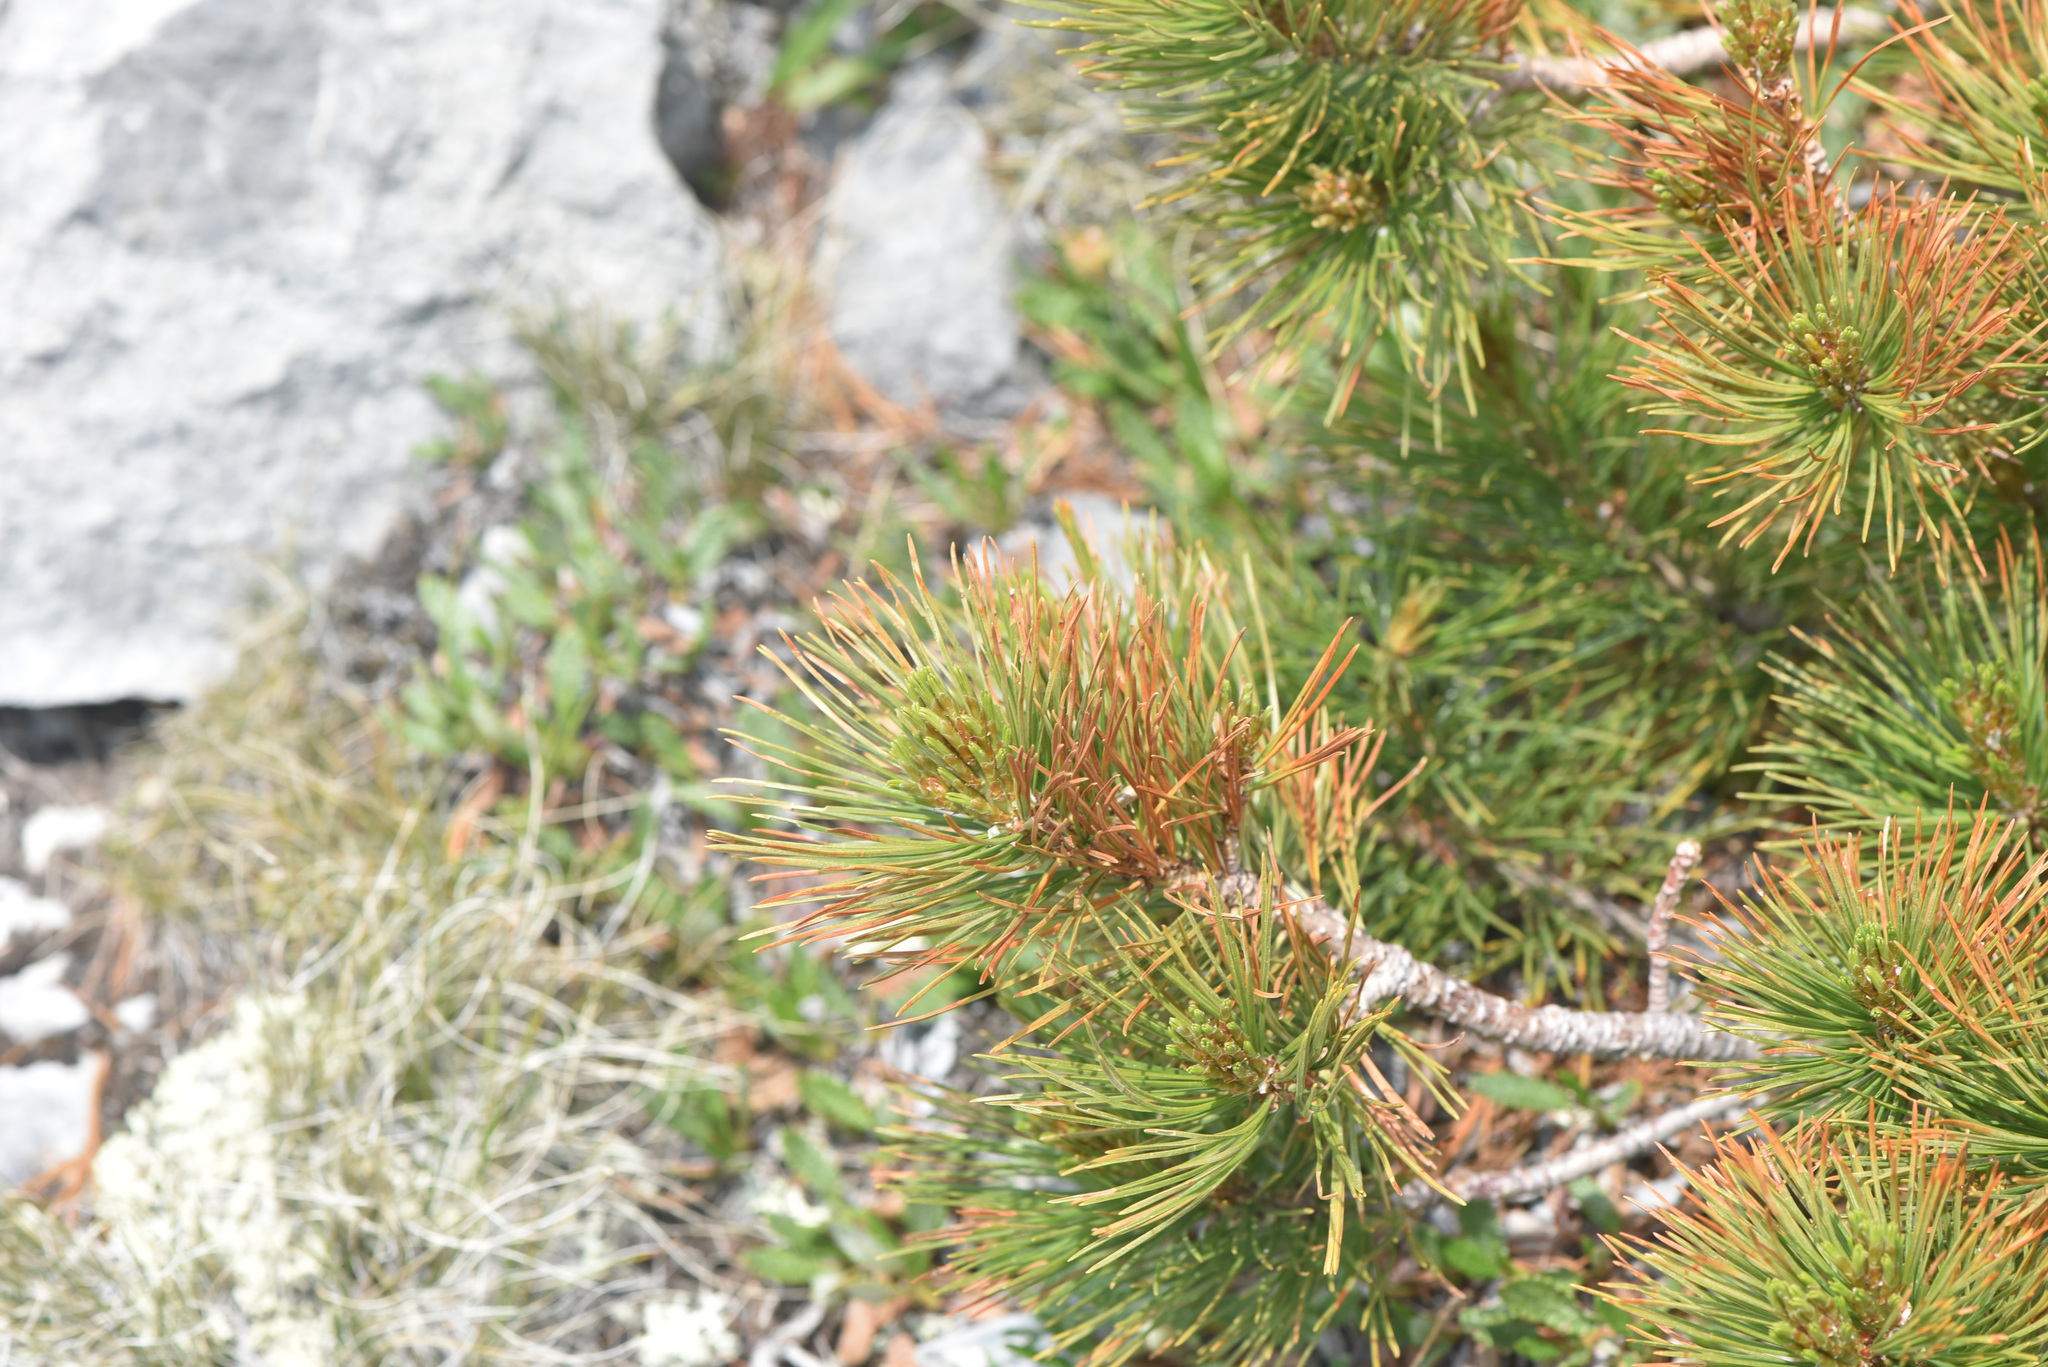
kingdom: Plantae
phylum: Tracheophyta
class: Pinopsida
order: Pinales
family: Pinaceae
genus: Pinus
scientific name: Pinus albicaulis
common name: Whitebark pine
